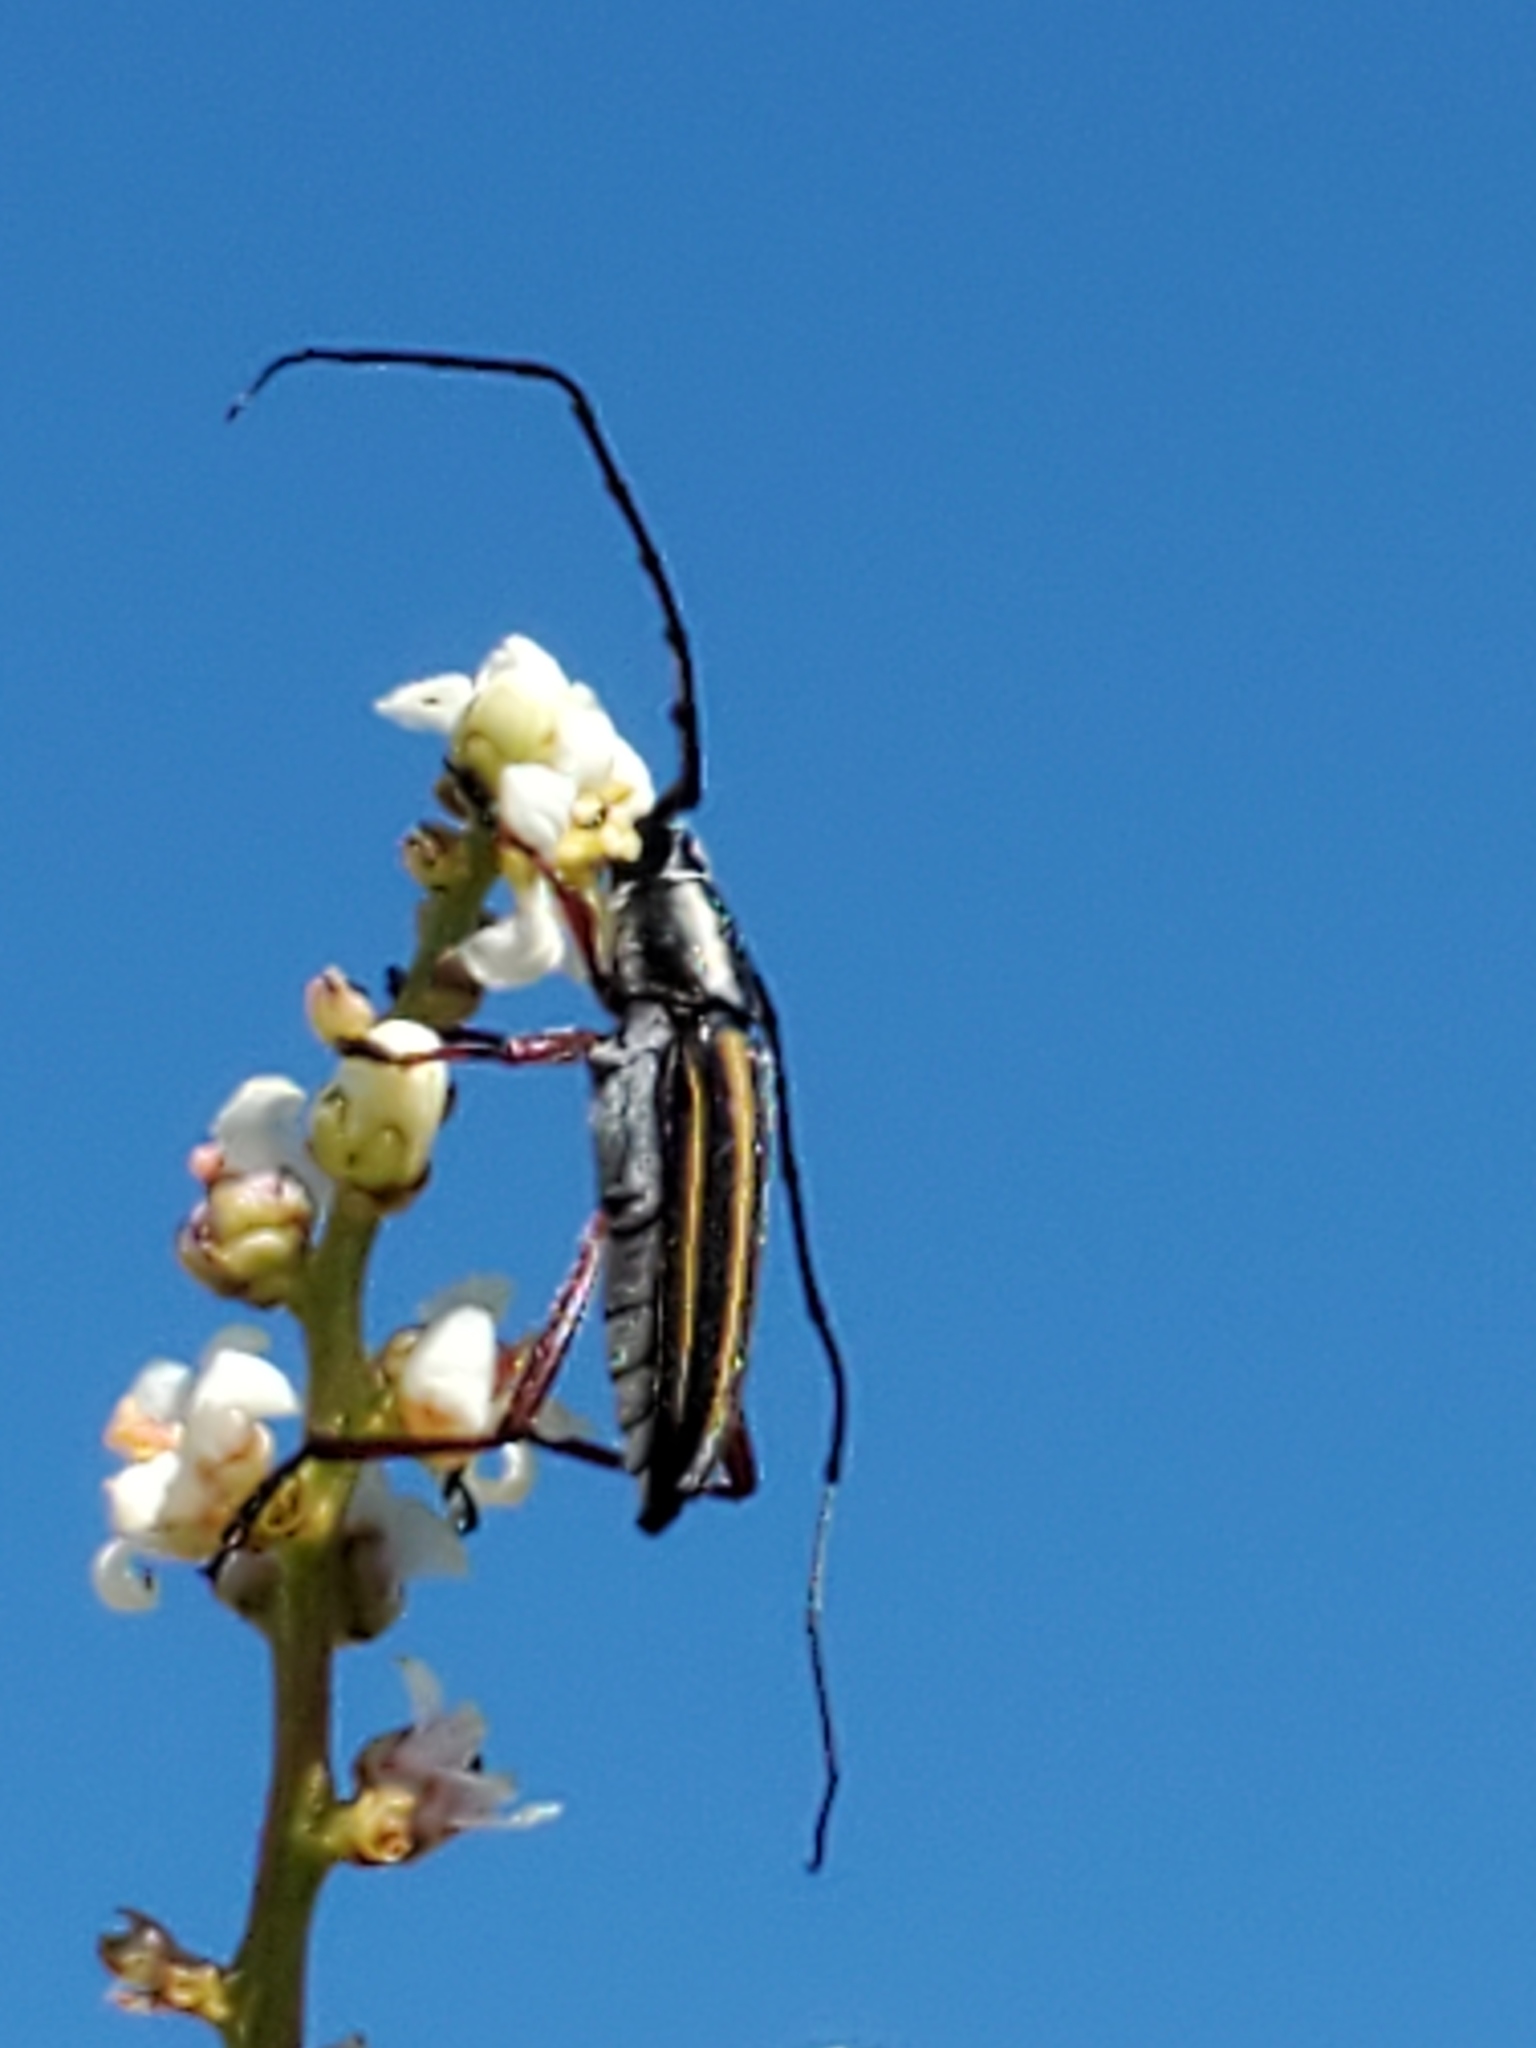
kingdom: Animalia
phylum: Arthropoda
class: Insecta
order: Coleoptera
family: Cerambycidae
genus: Sphaenothecus
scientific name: Sphaenothecus bilineatus
